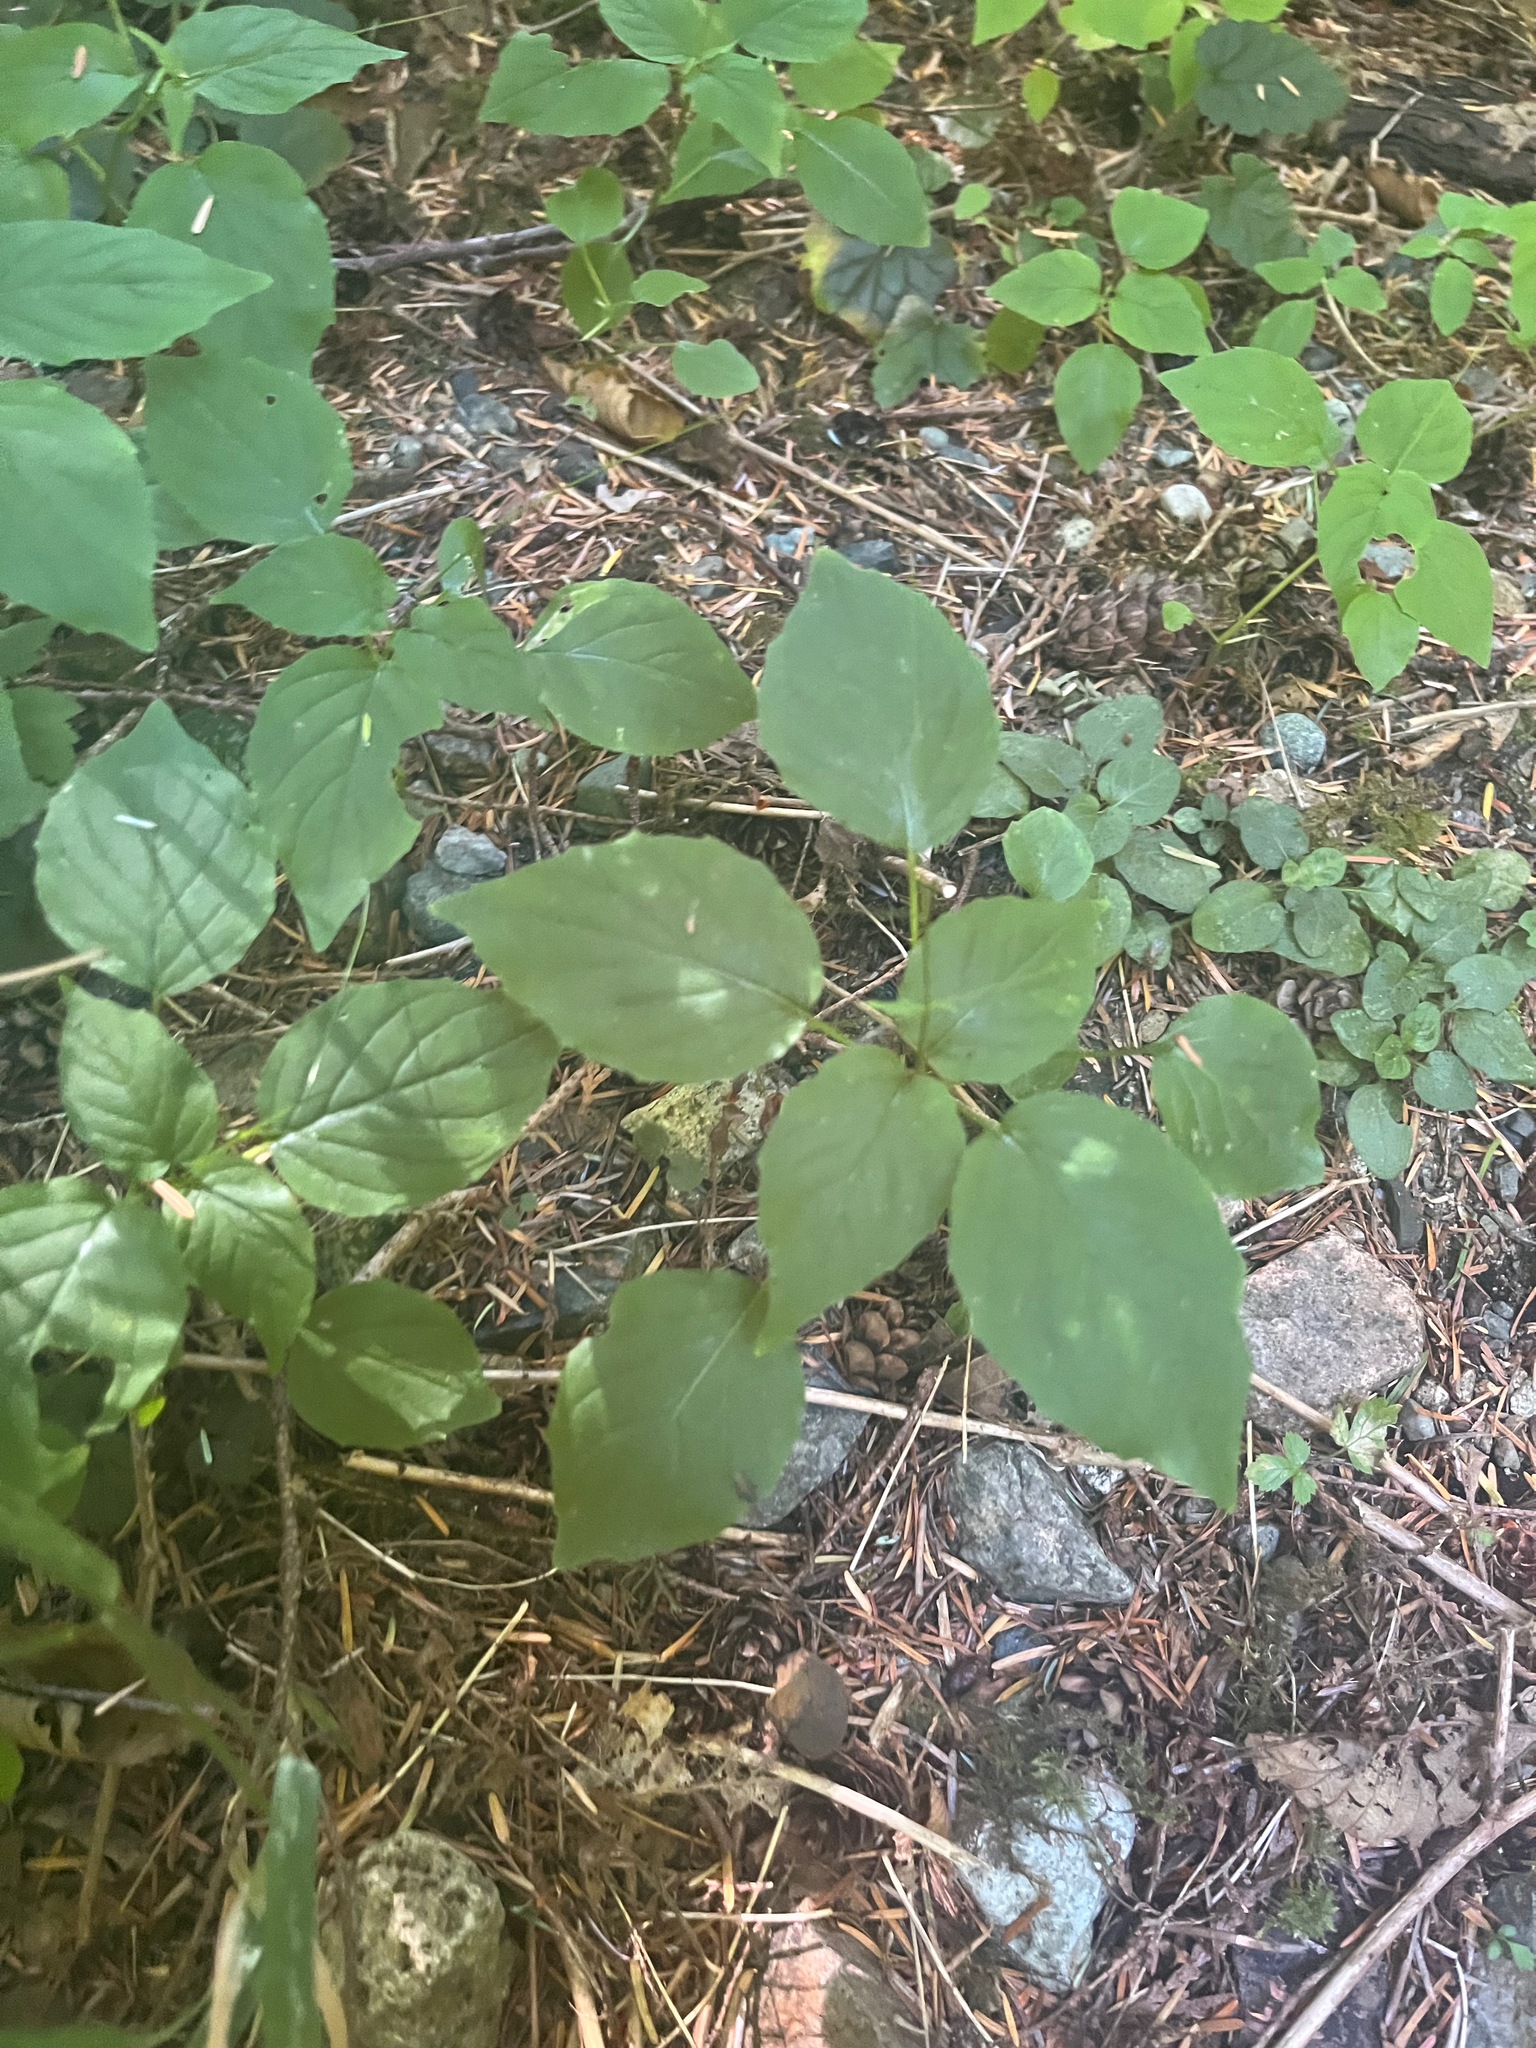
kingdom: Plantae
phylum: Tracheophyta
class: Magnoliopsida
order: Myrtales
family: Onagraceae
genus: Circaea
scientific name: Circaea alpina
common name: Alpine enchanter's-nightshade
